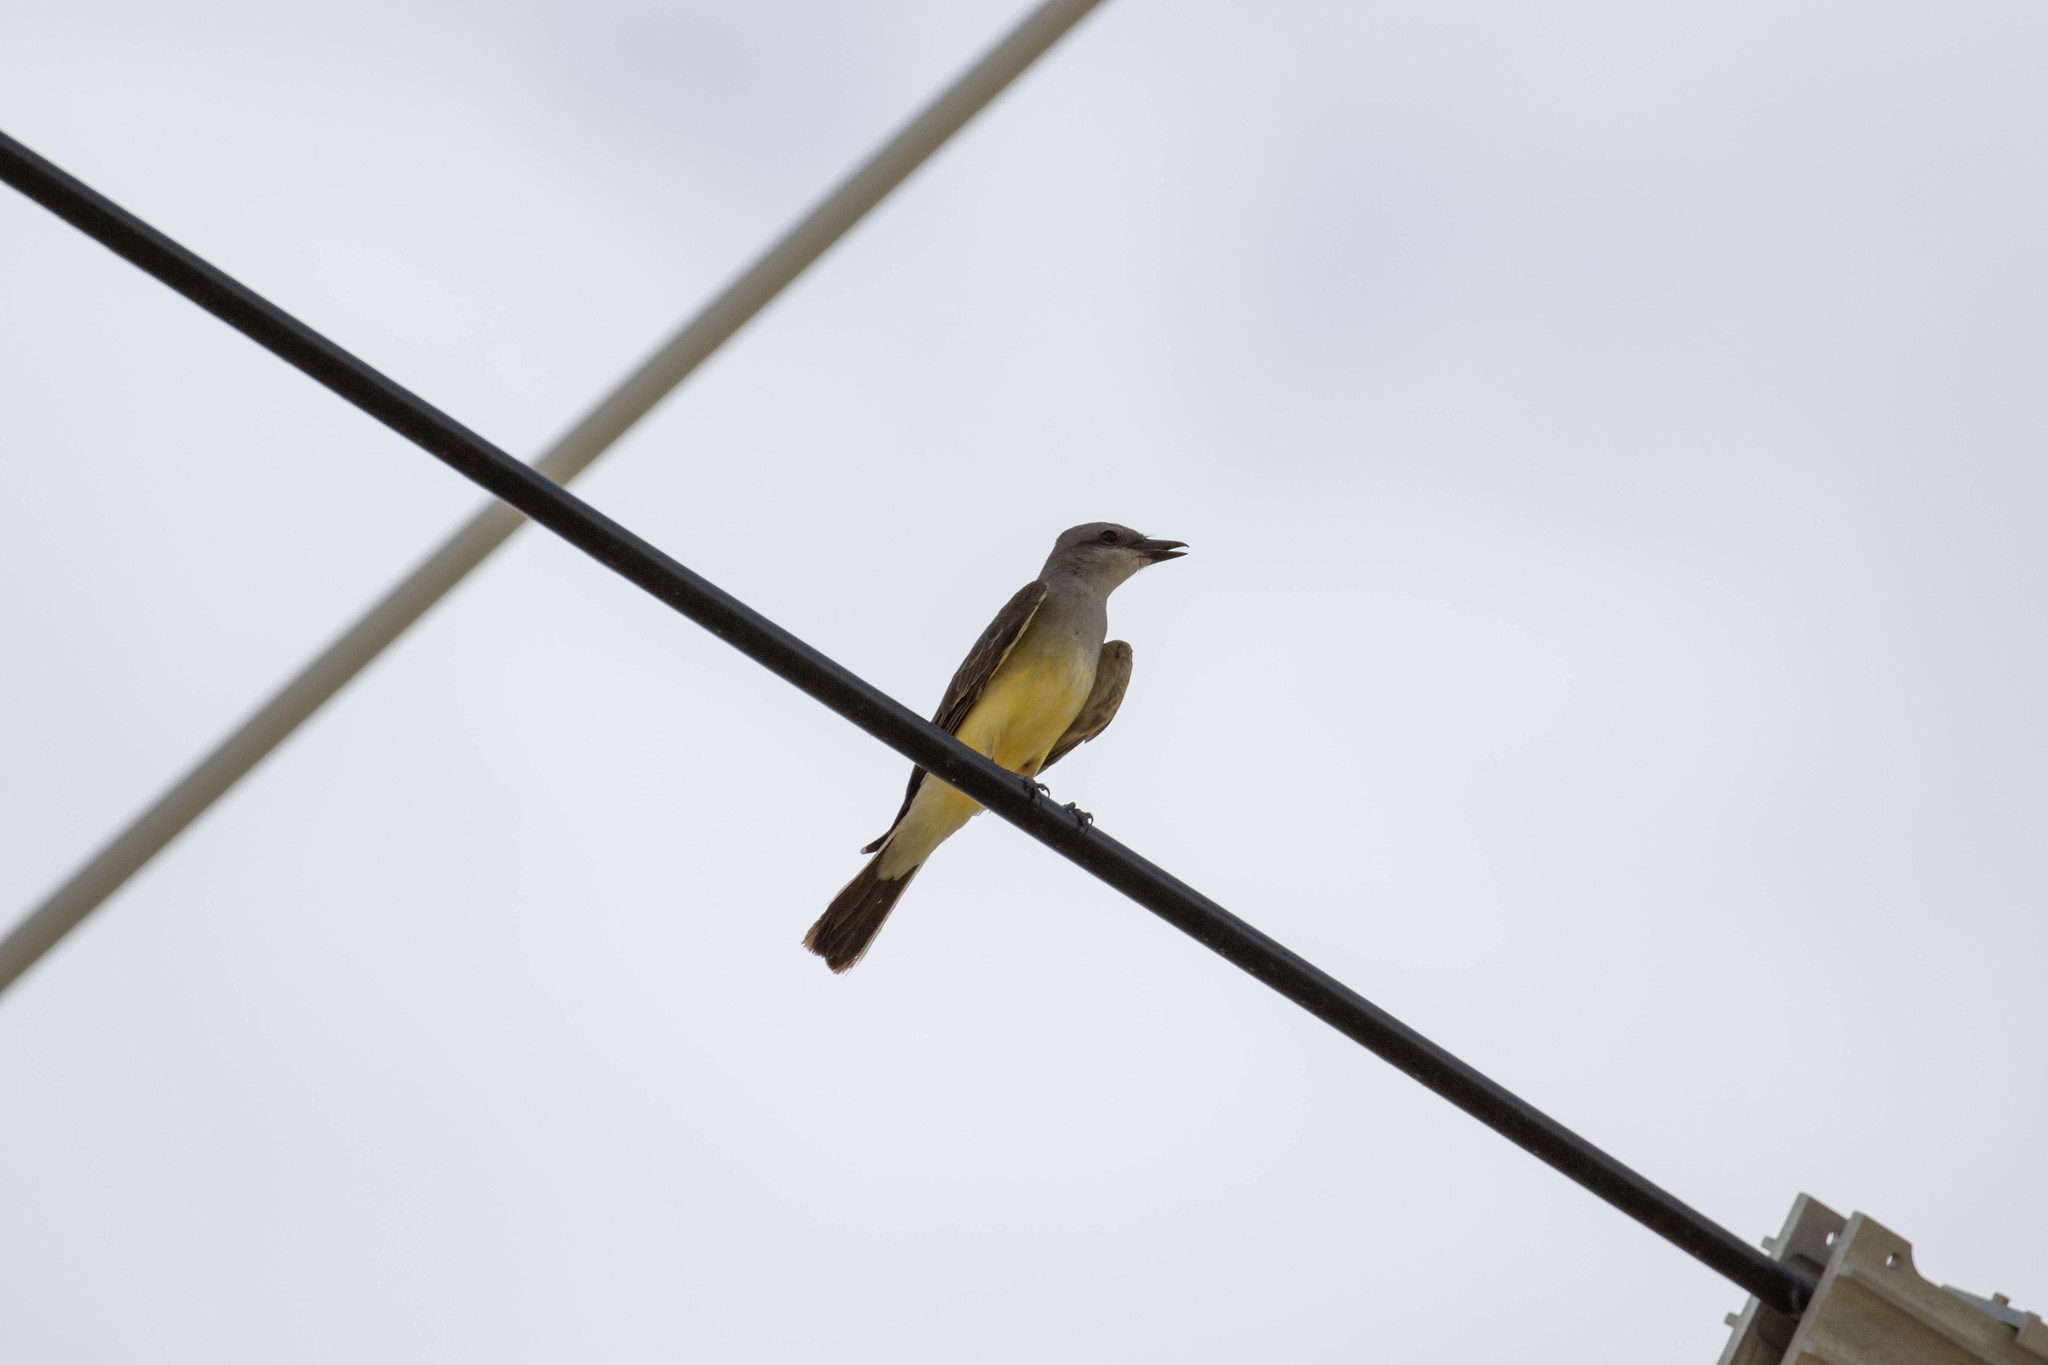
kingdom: Animalia
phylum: Chordata
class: Aves
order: Passeriformes
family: Tyrannidae
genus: Tyrannus
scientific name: Tyrannus verticalis
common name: Western kingbird
